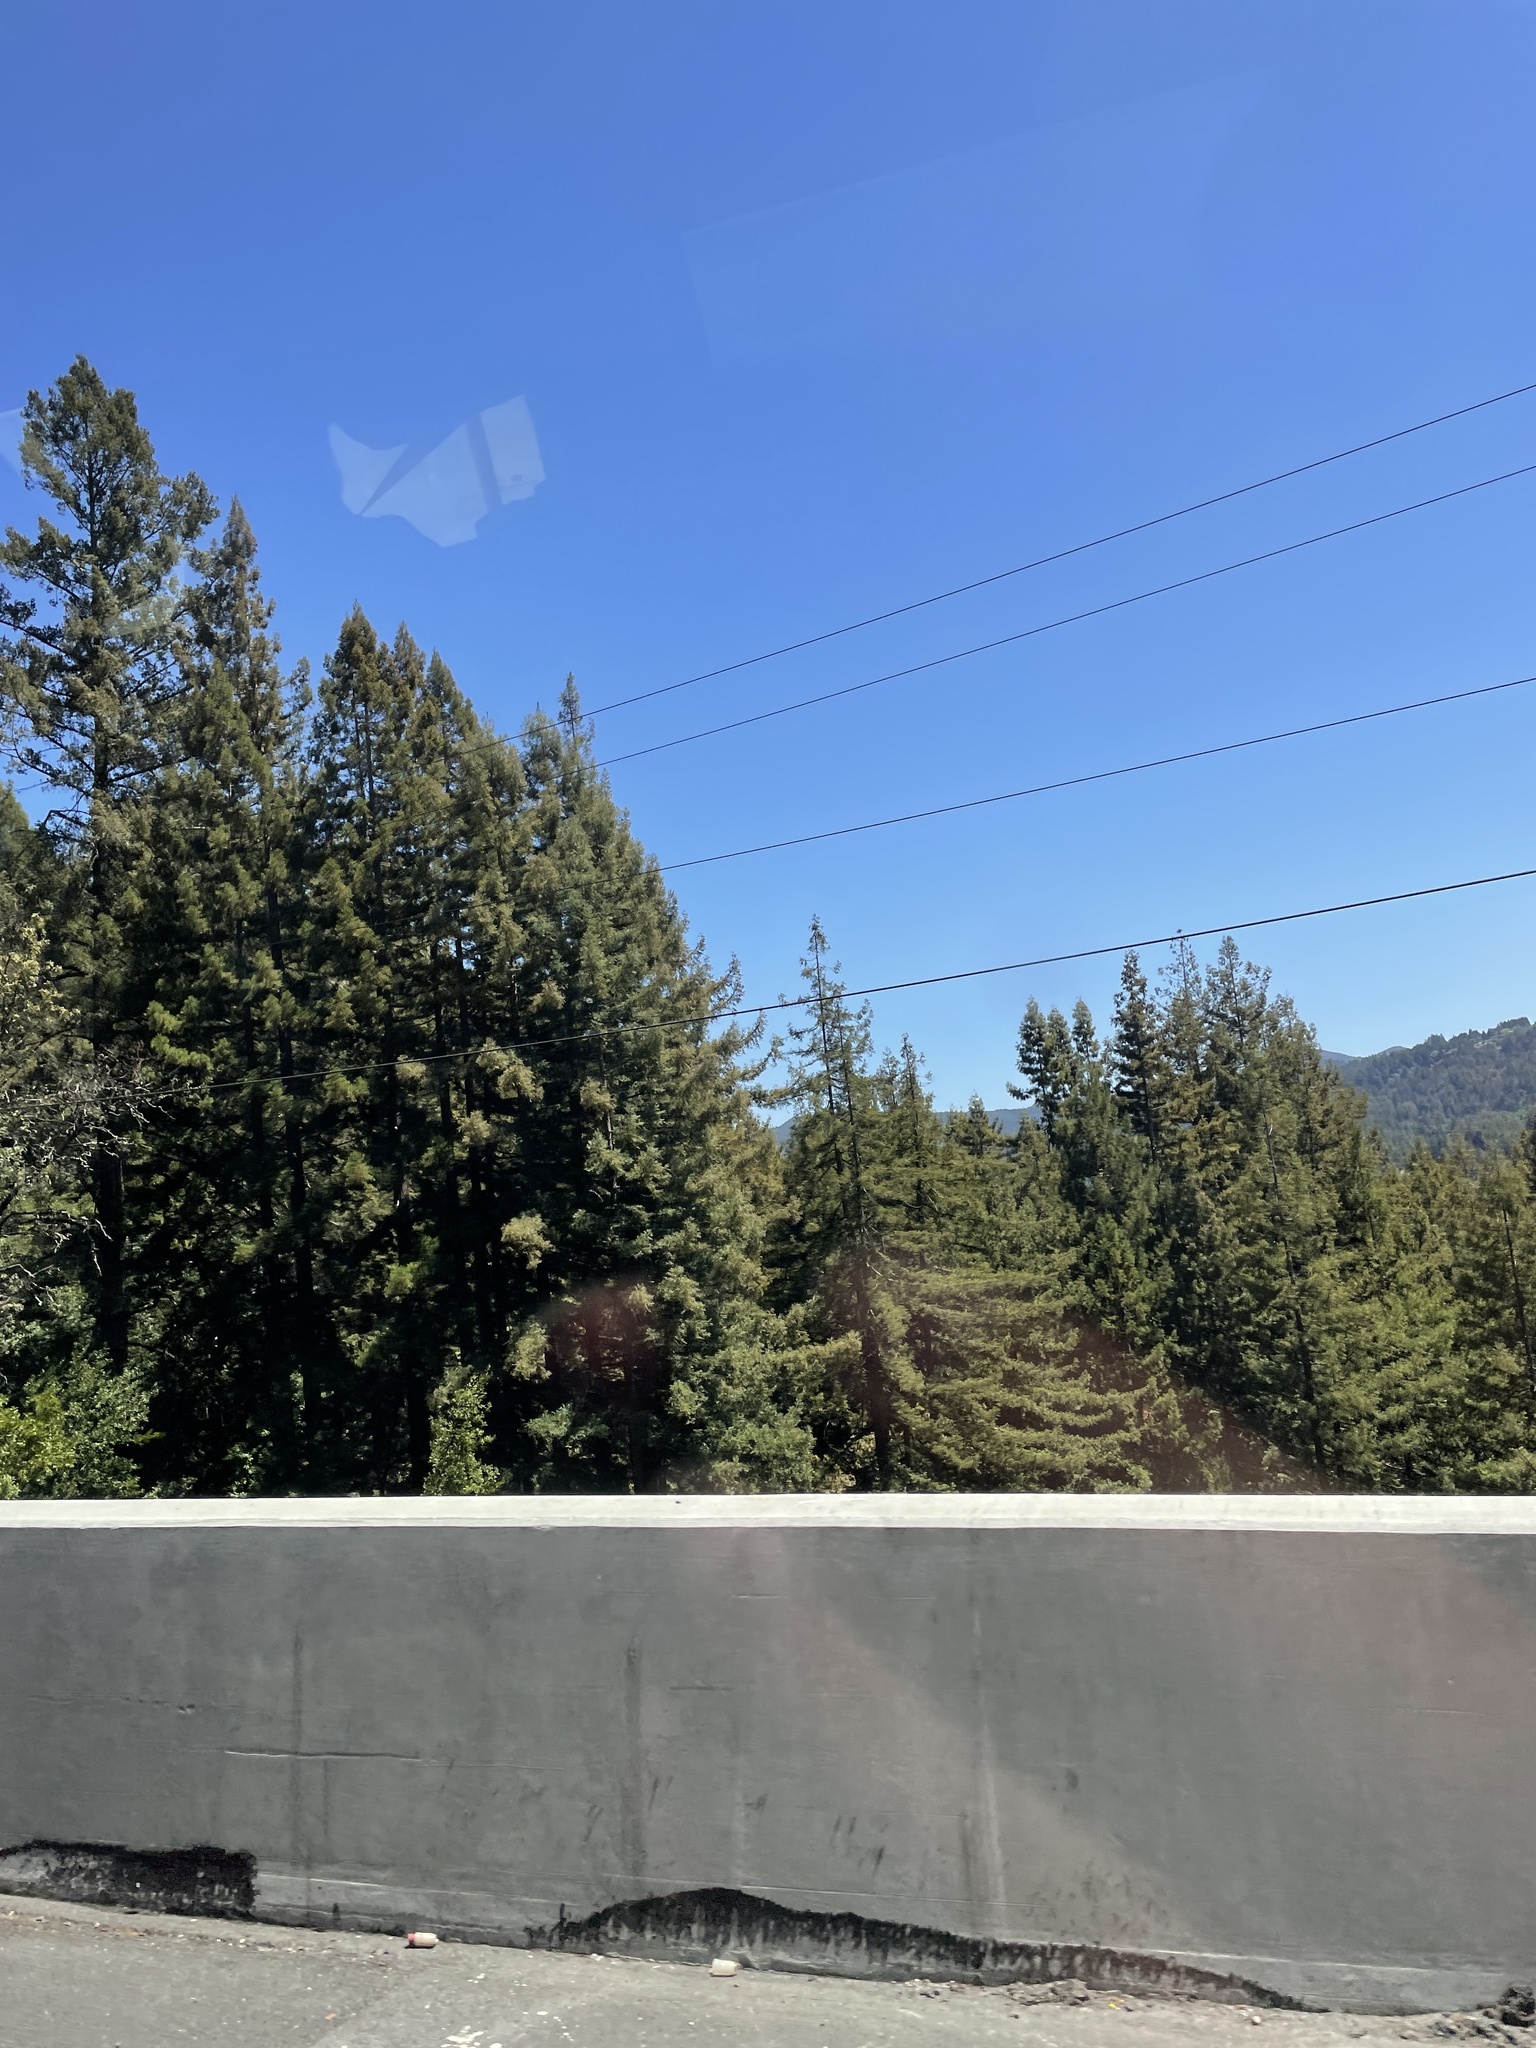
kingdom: Plantae
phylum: Tracheophyta
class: Pinopsida
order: Pinales
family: Cupressaceae
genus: Sequoia
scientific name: Sequoia sempervirens
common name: Coast redwood
